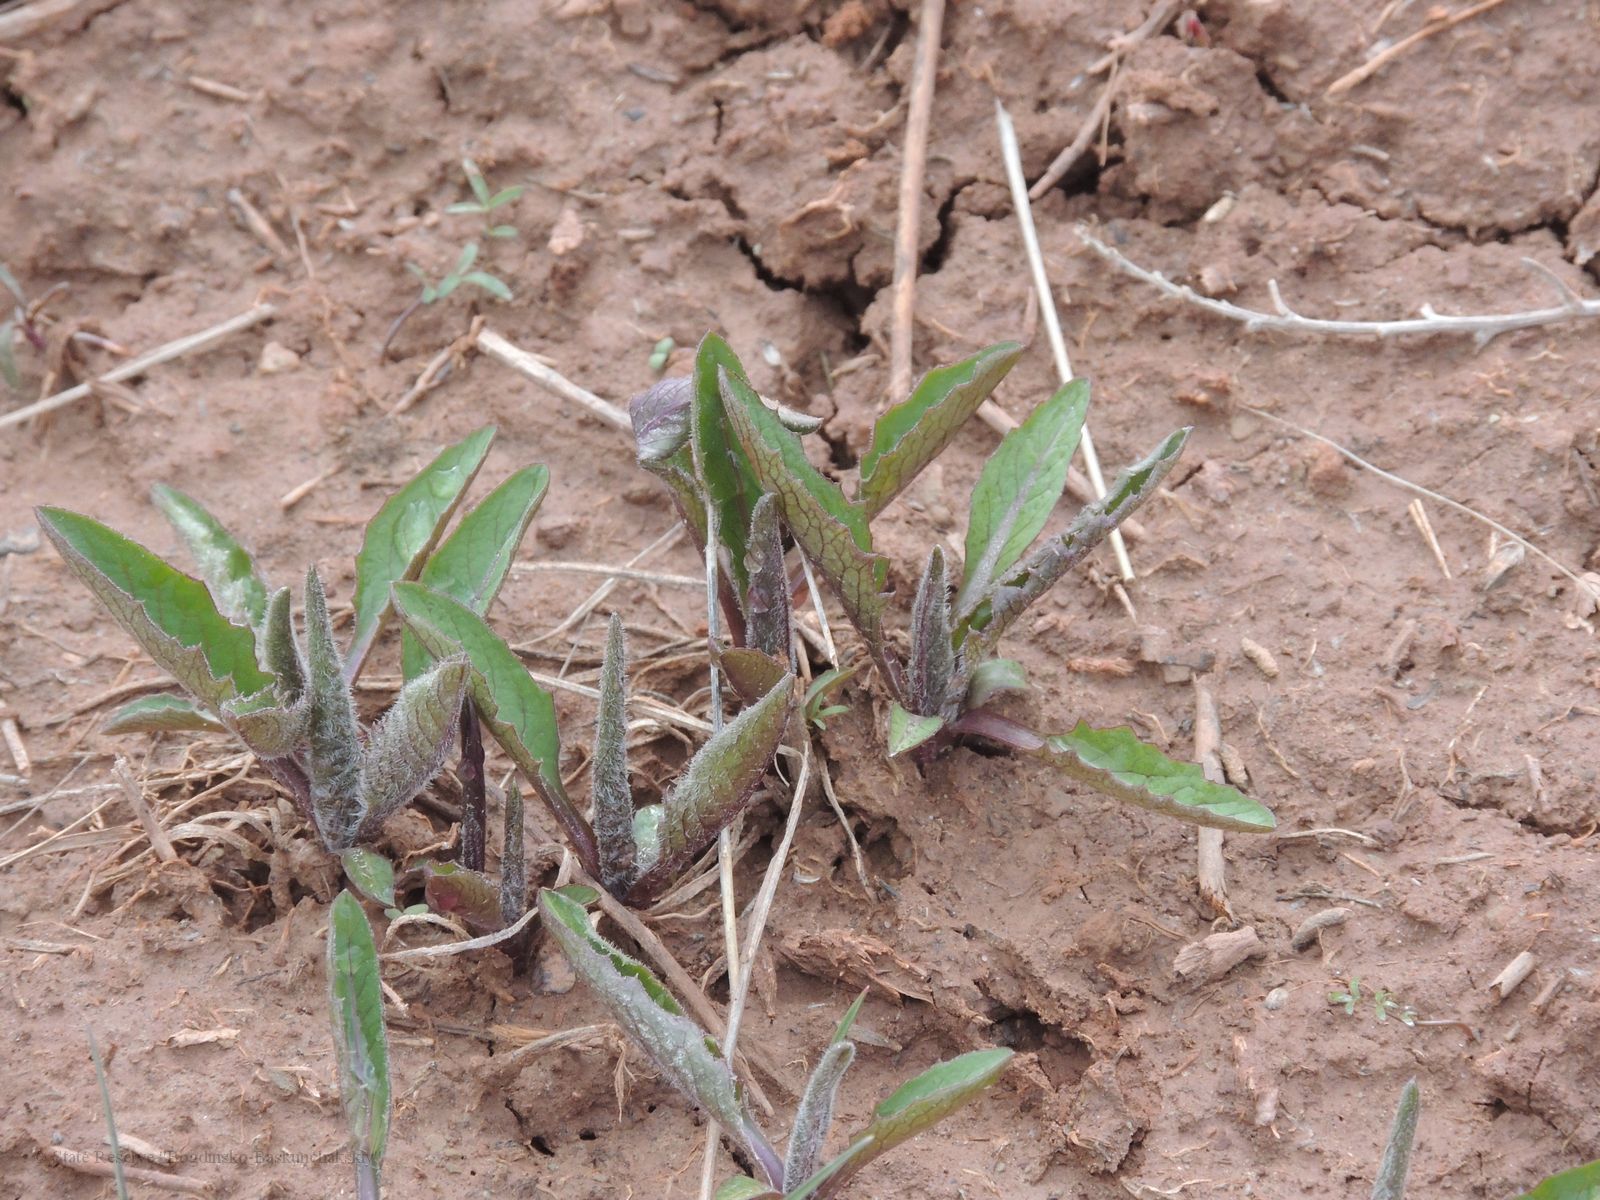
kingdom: Plantae
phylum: Tracheophyta
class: Magnoliopsida
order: Boraginales
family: Boraginaceae
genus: Rindera
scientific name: Rindera tetraspis
